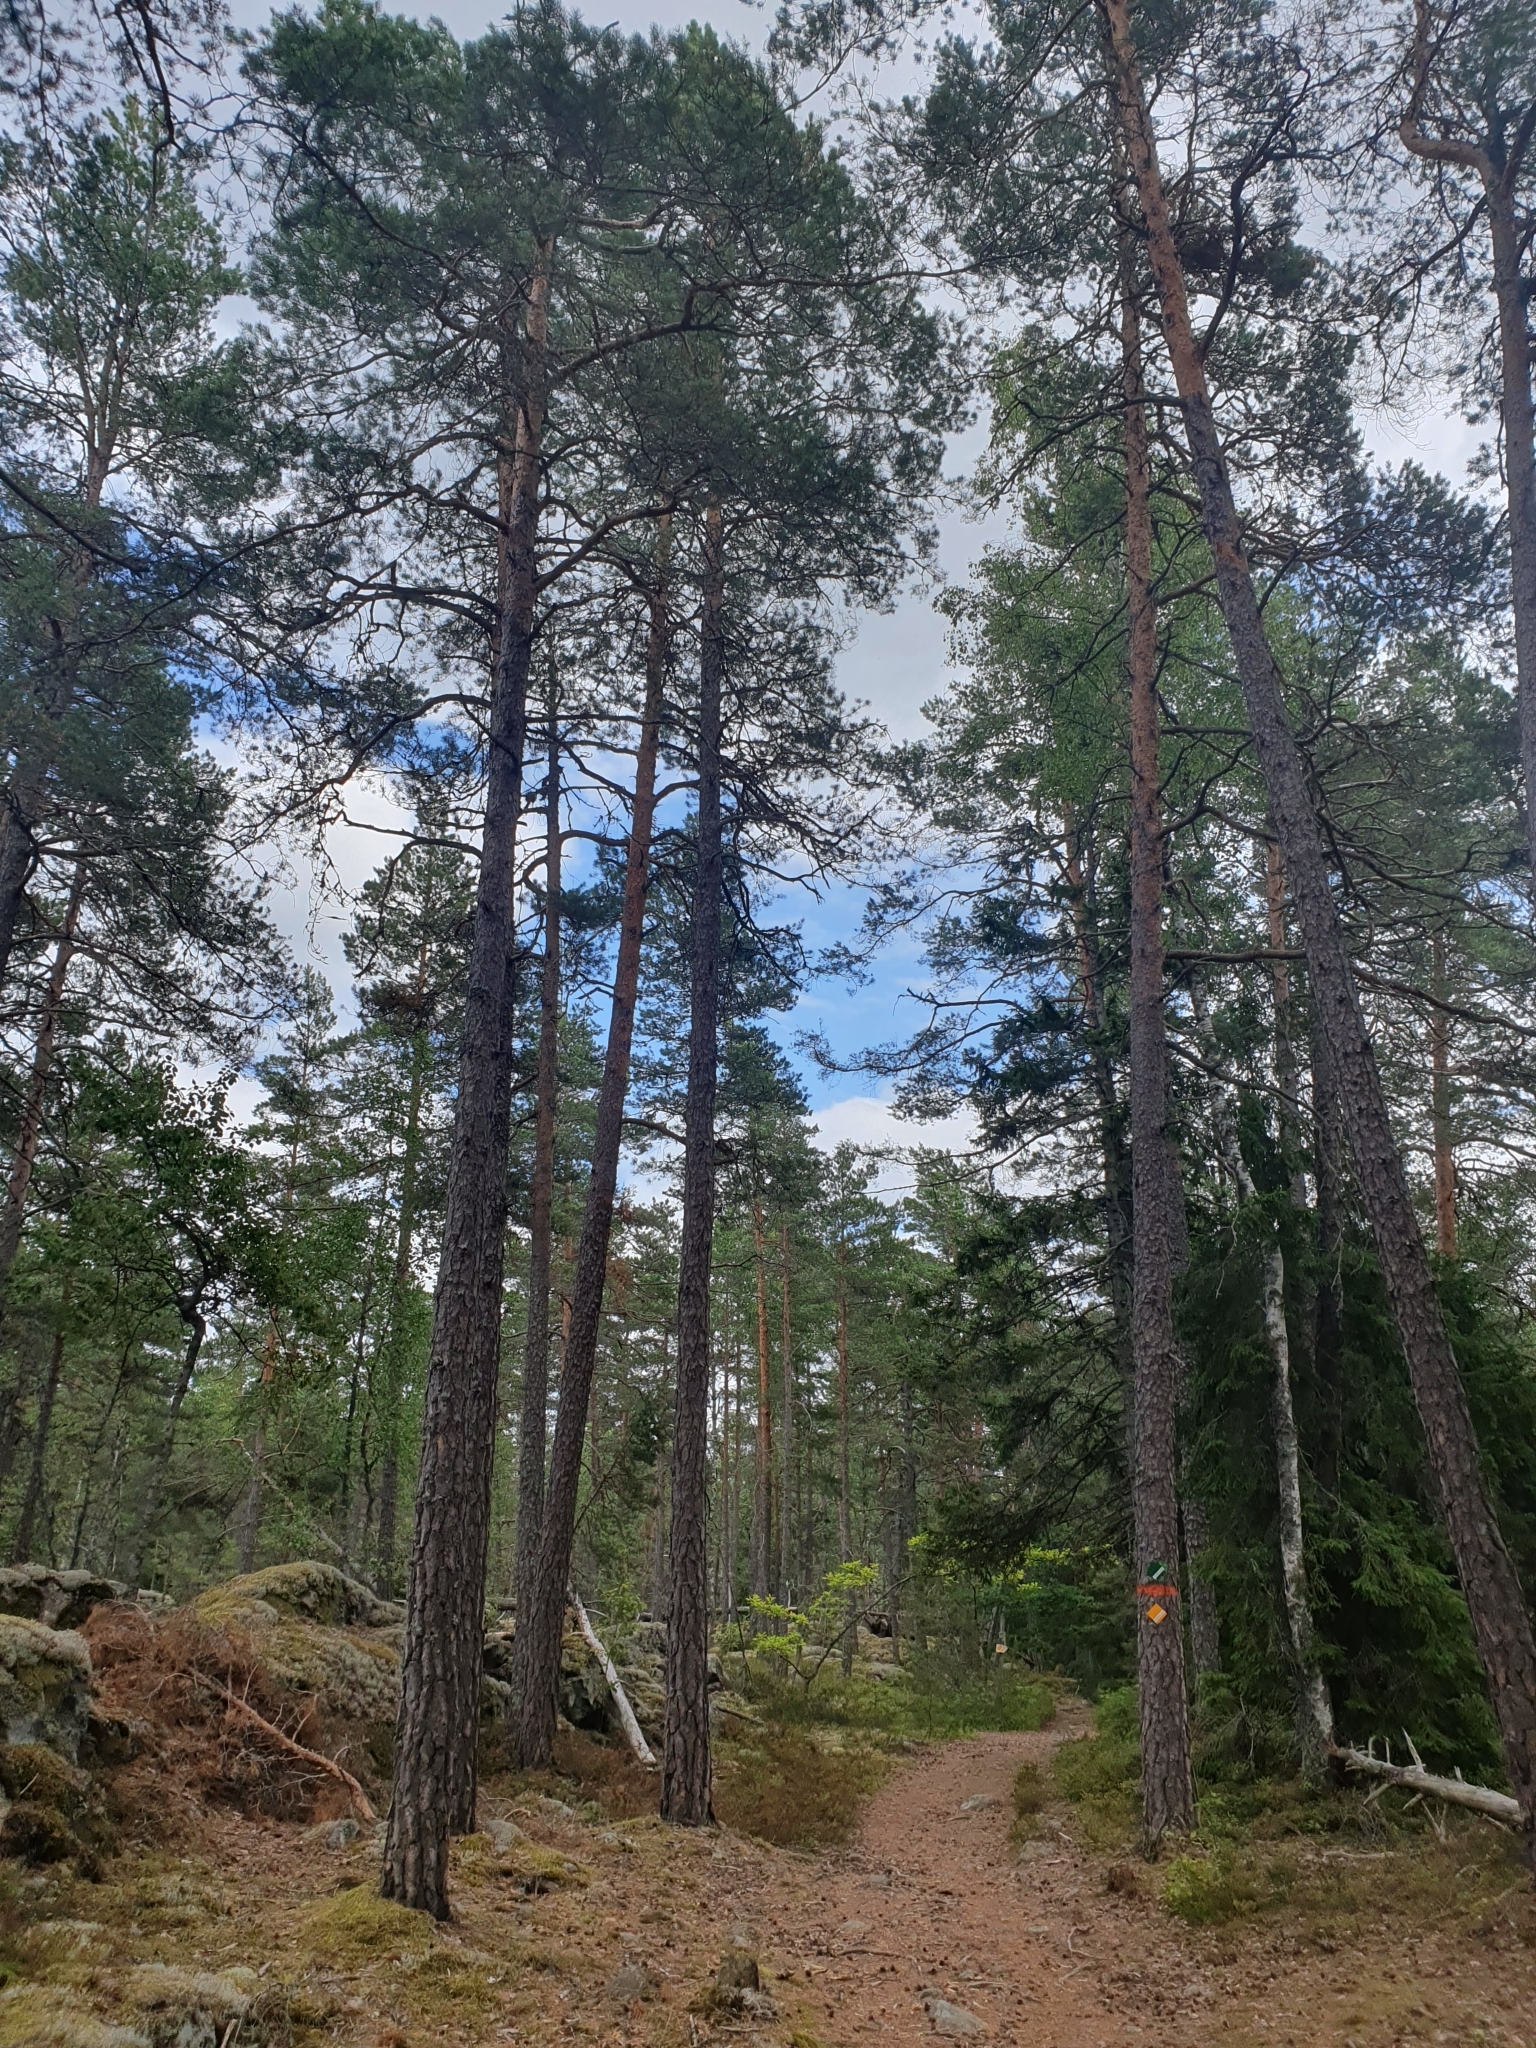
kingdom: Plantae
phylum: Tracheophyta
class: Pinopsida
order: Pinales
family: Pinaceae
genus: Pinus
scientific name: Pinus sylvestris
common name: Scots pine
